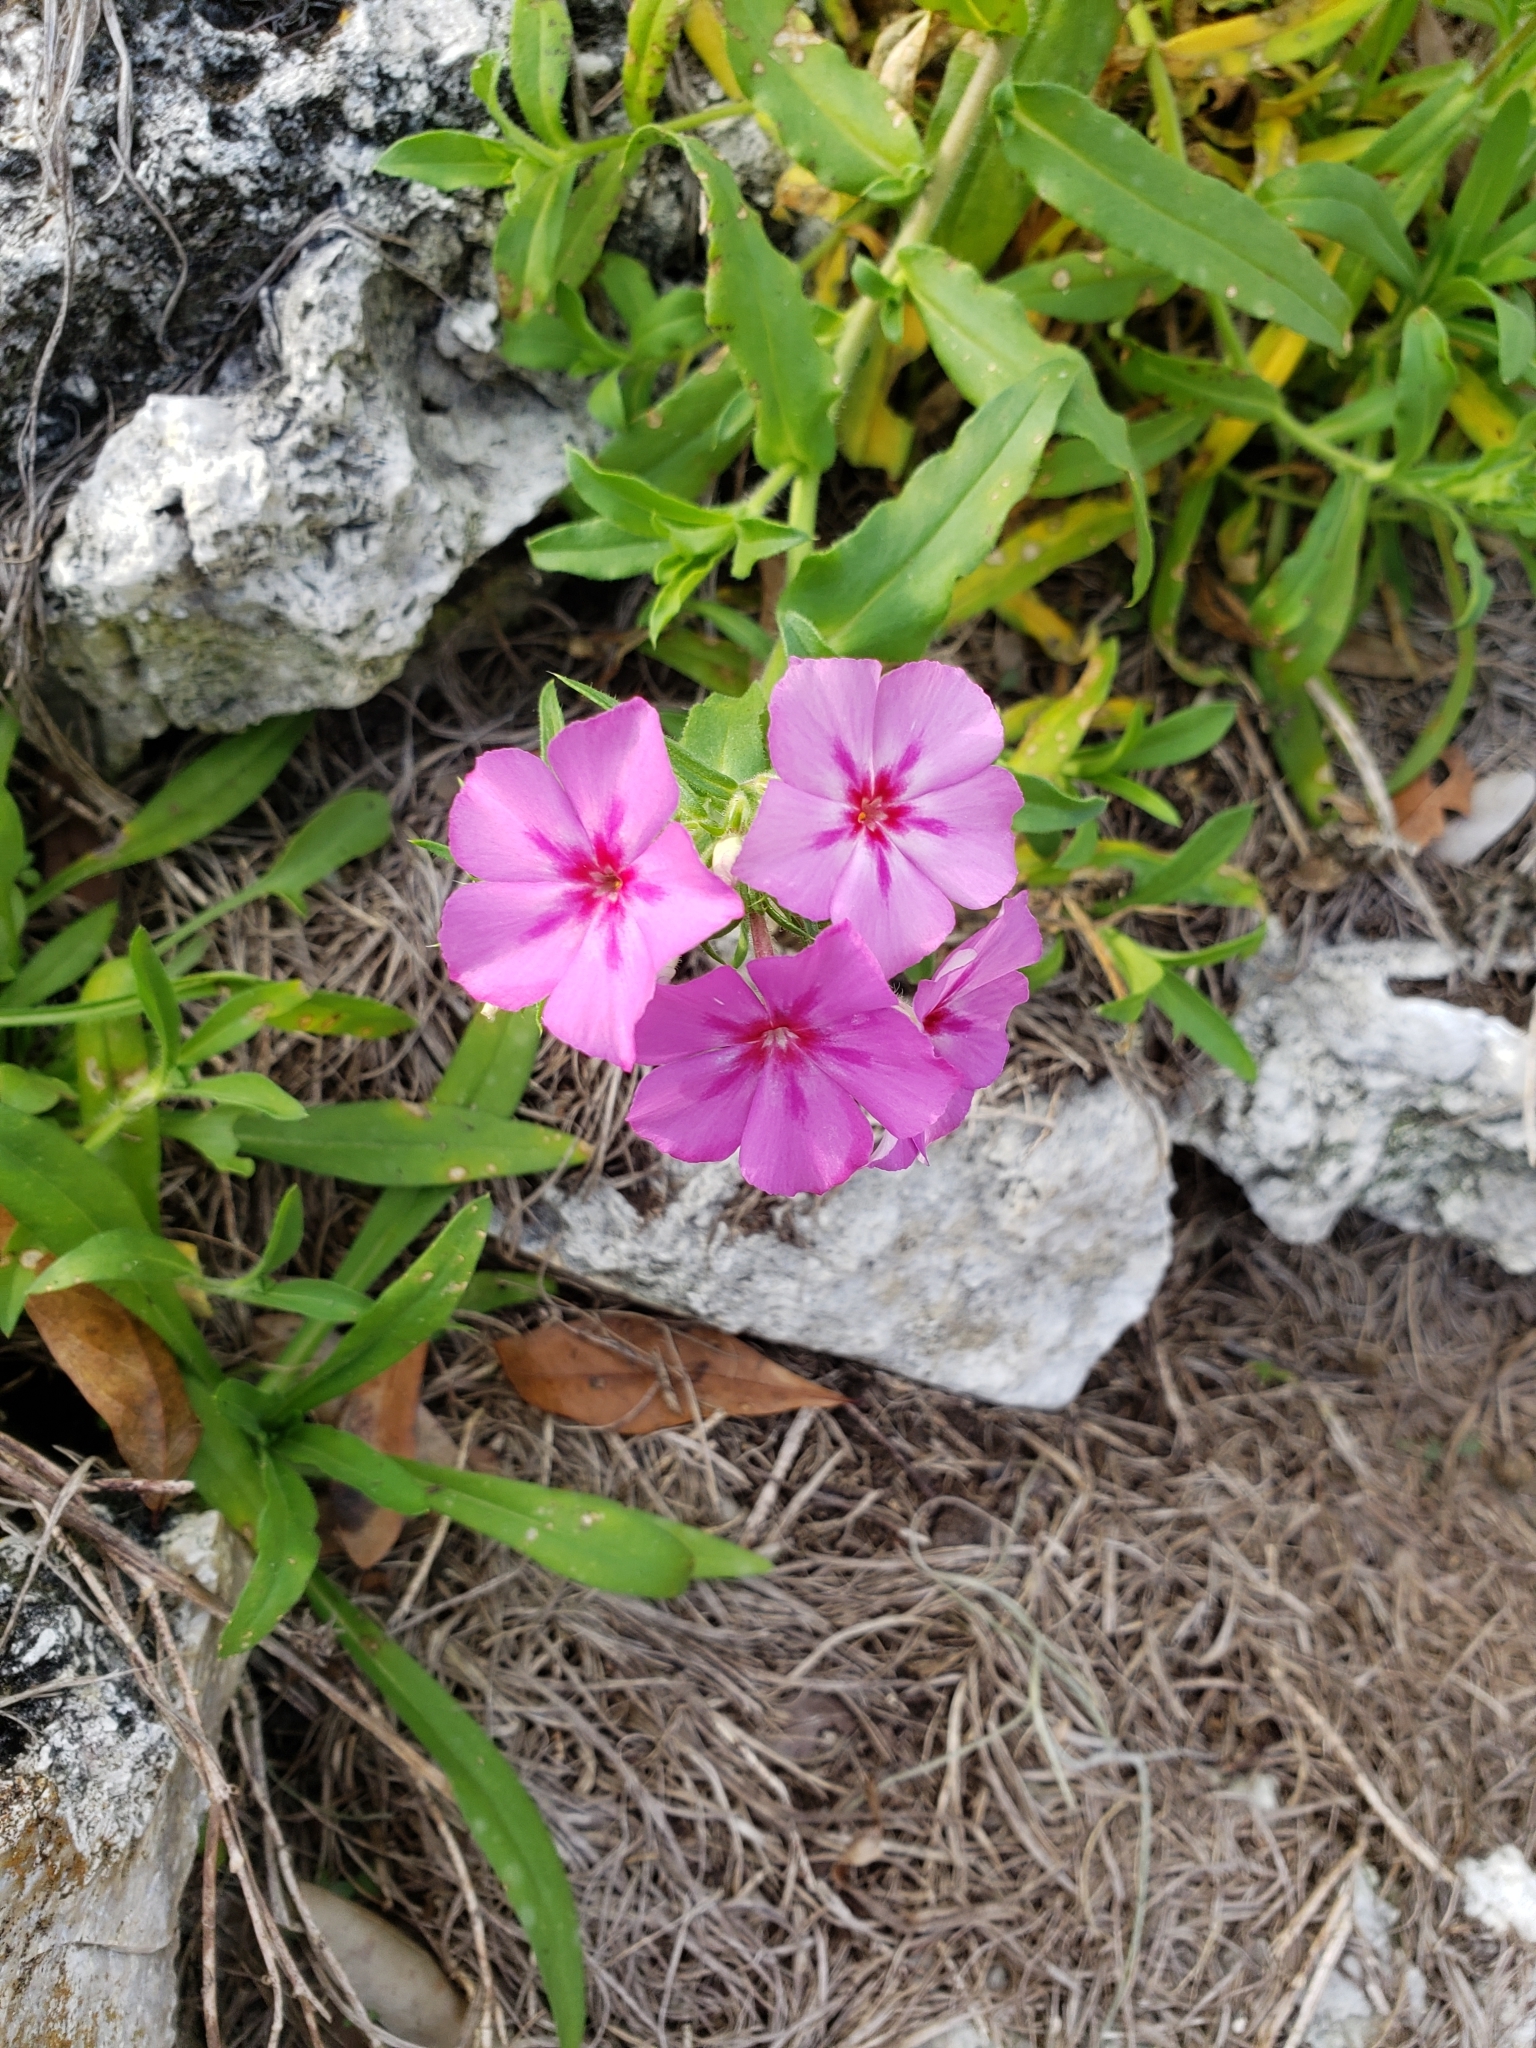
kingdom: Plantae
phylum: Tracheophyta
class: Magnoliopsida
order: Ericales
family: Polemoniaceae
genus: Phlox
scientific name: Phlox drummondii
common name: Drummond's phlox
